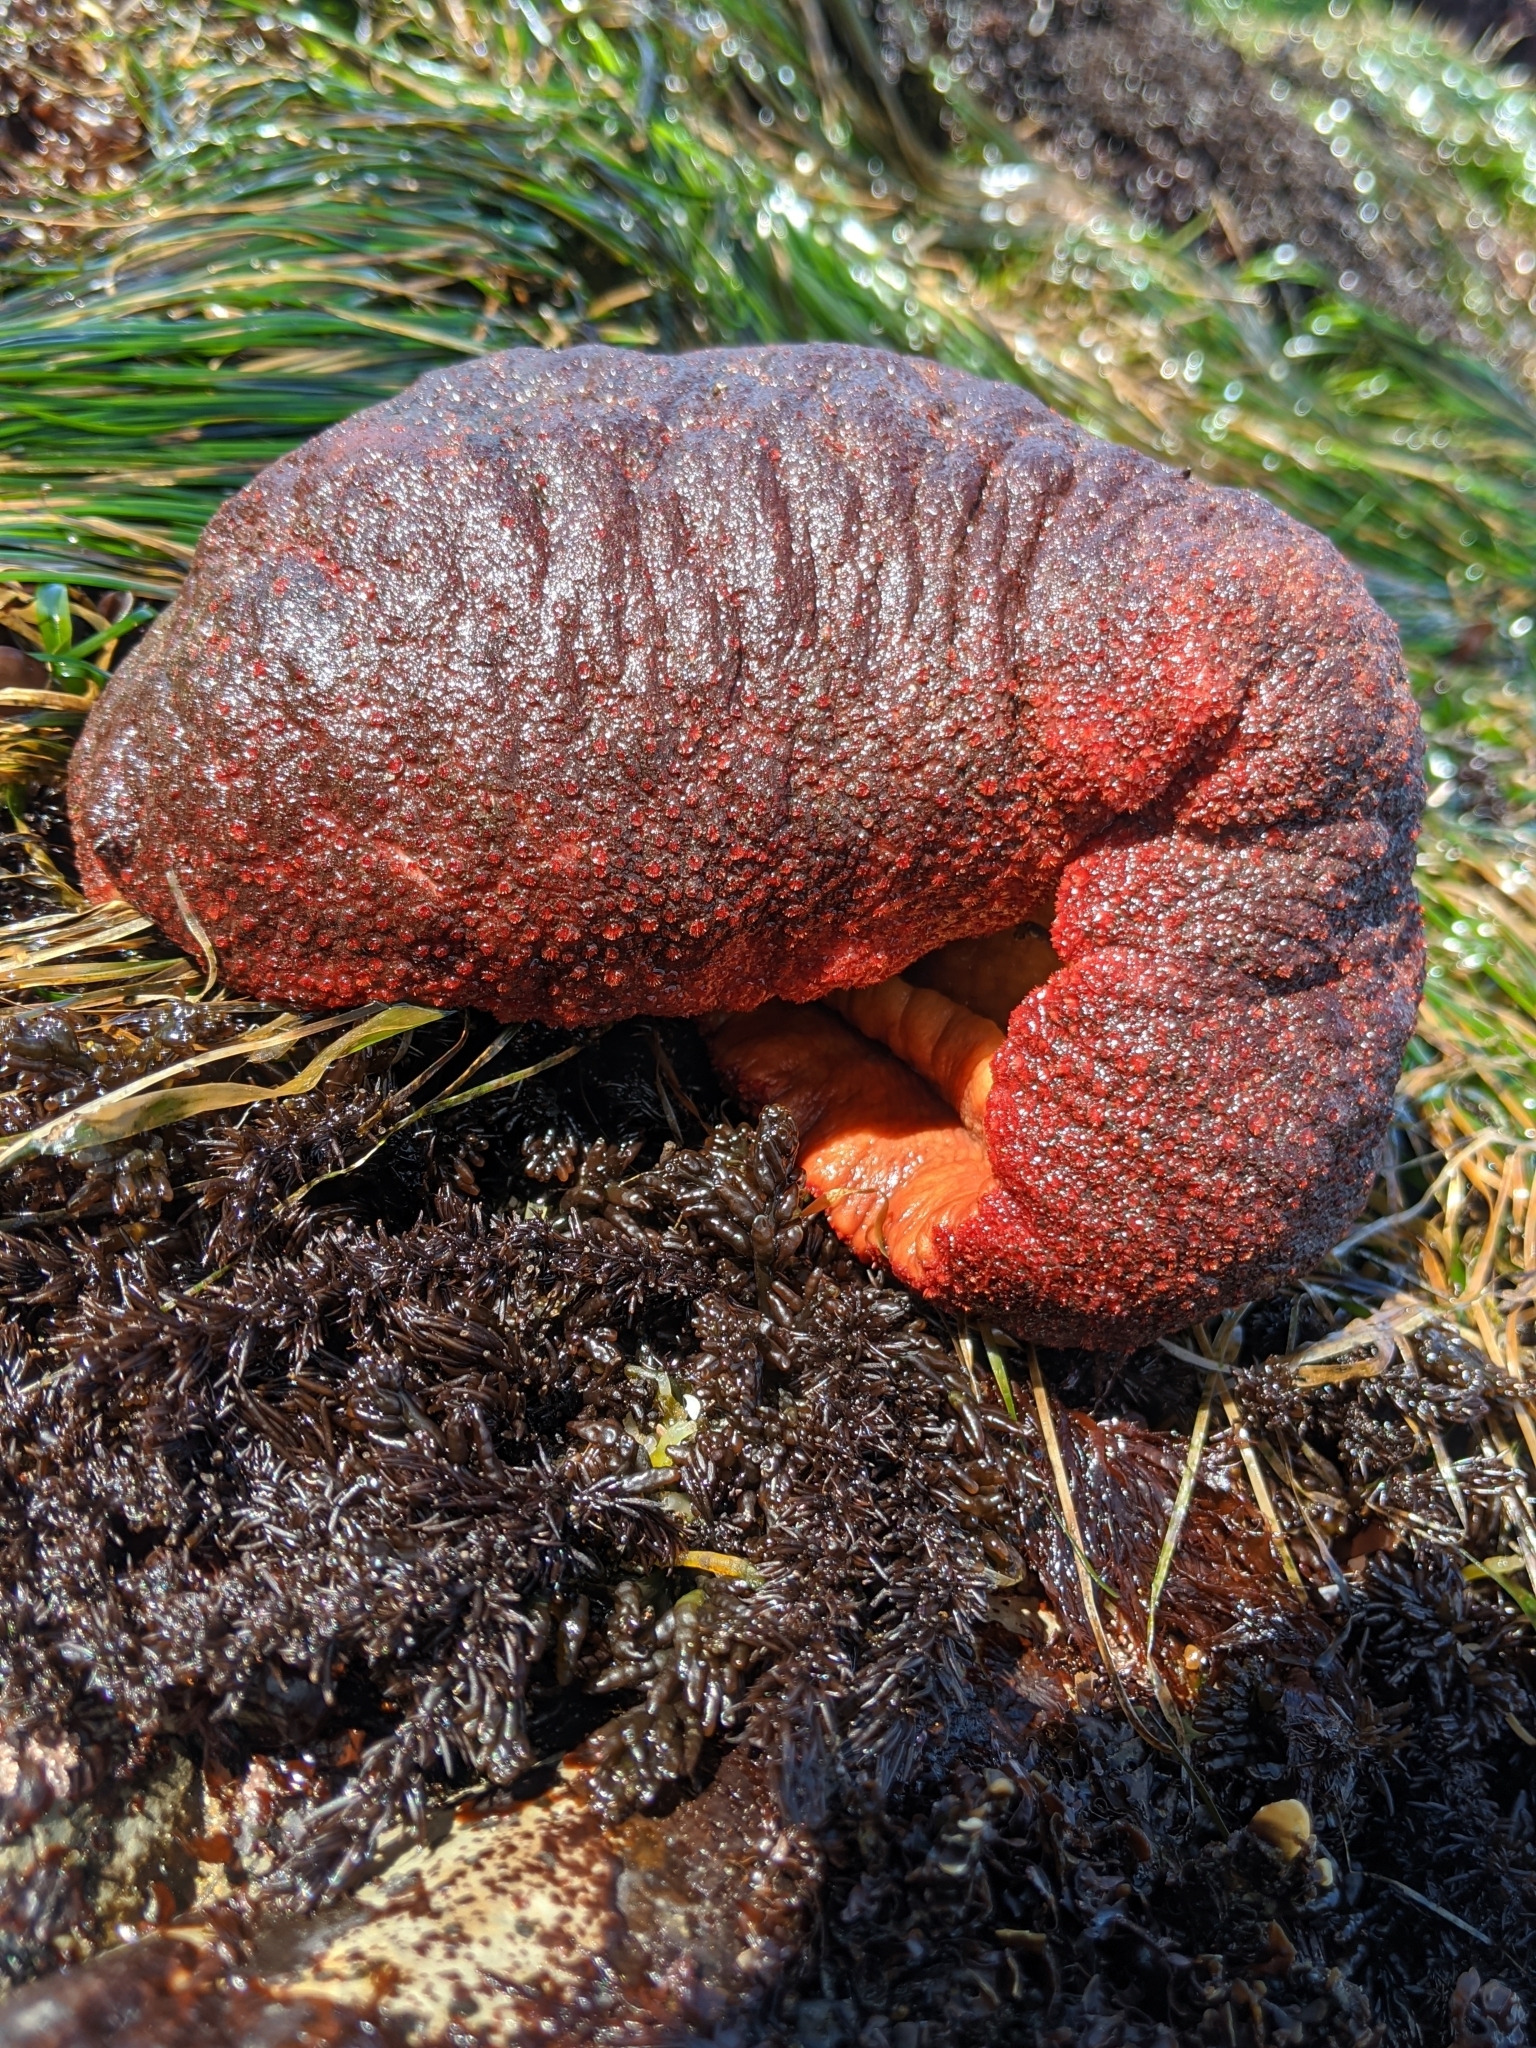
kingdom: Animalia
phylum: Mollusca
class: Polyplacophora
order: Chitonida
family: Acanthochitonidae
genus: Cryptochiton
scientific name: Cryptochiton stelleri
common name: Giant pacific chiton
